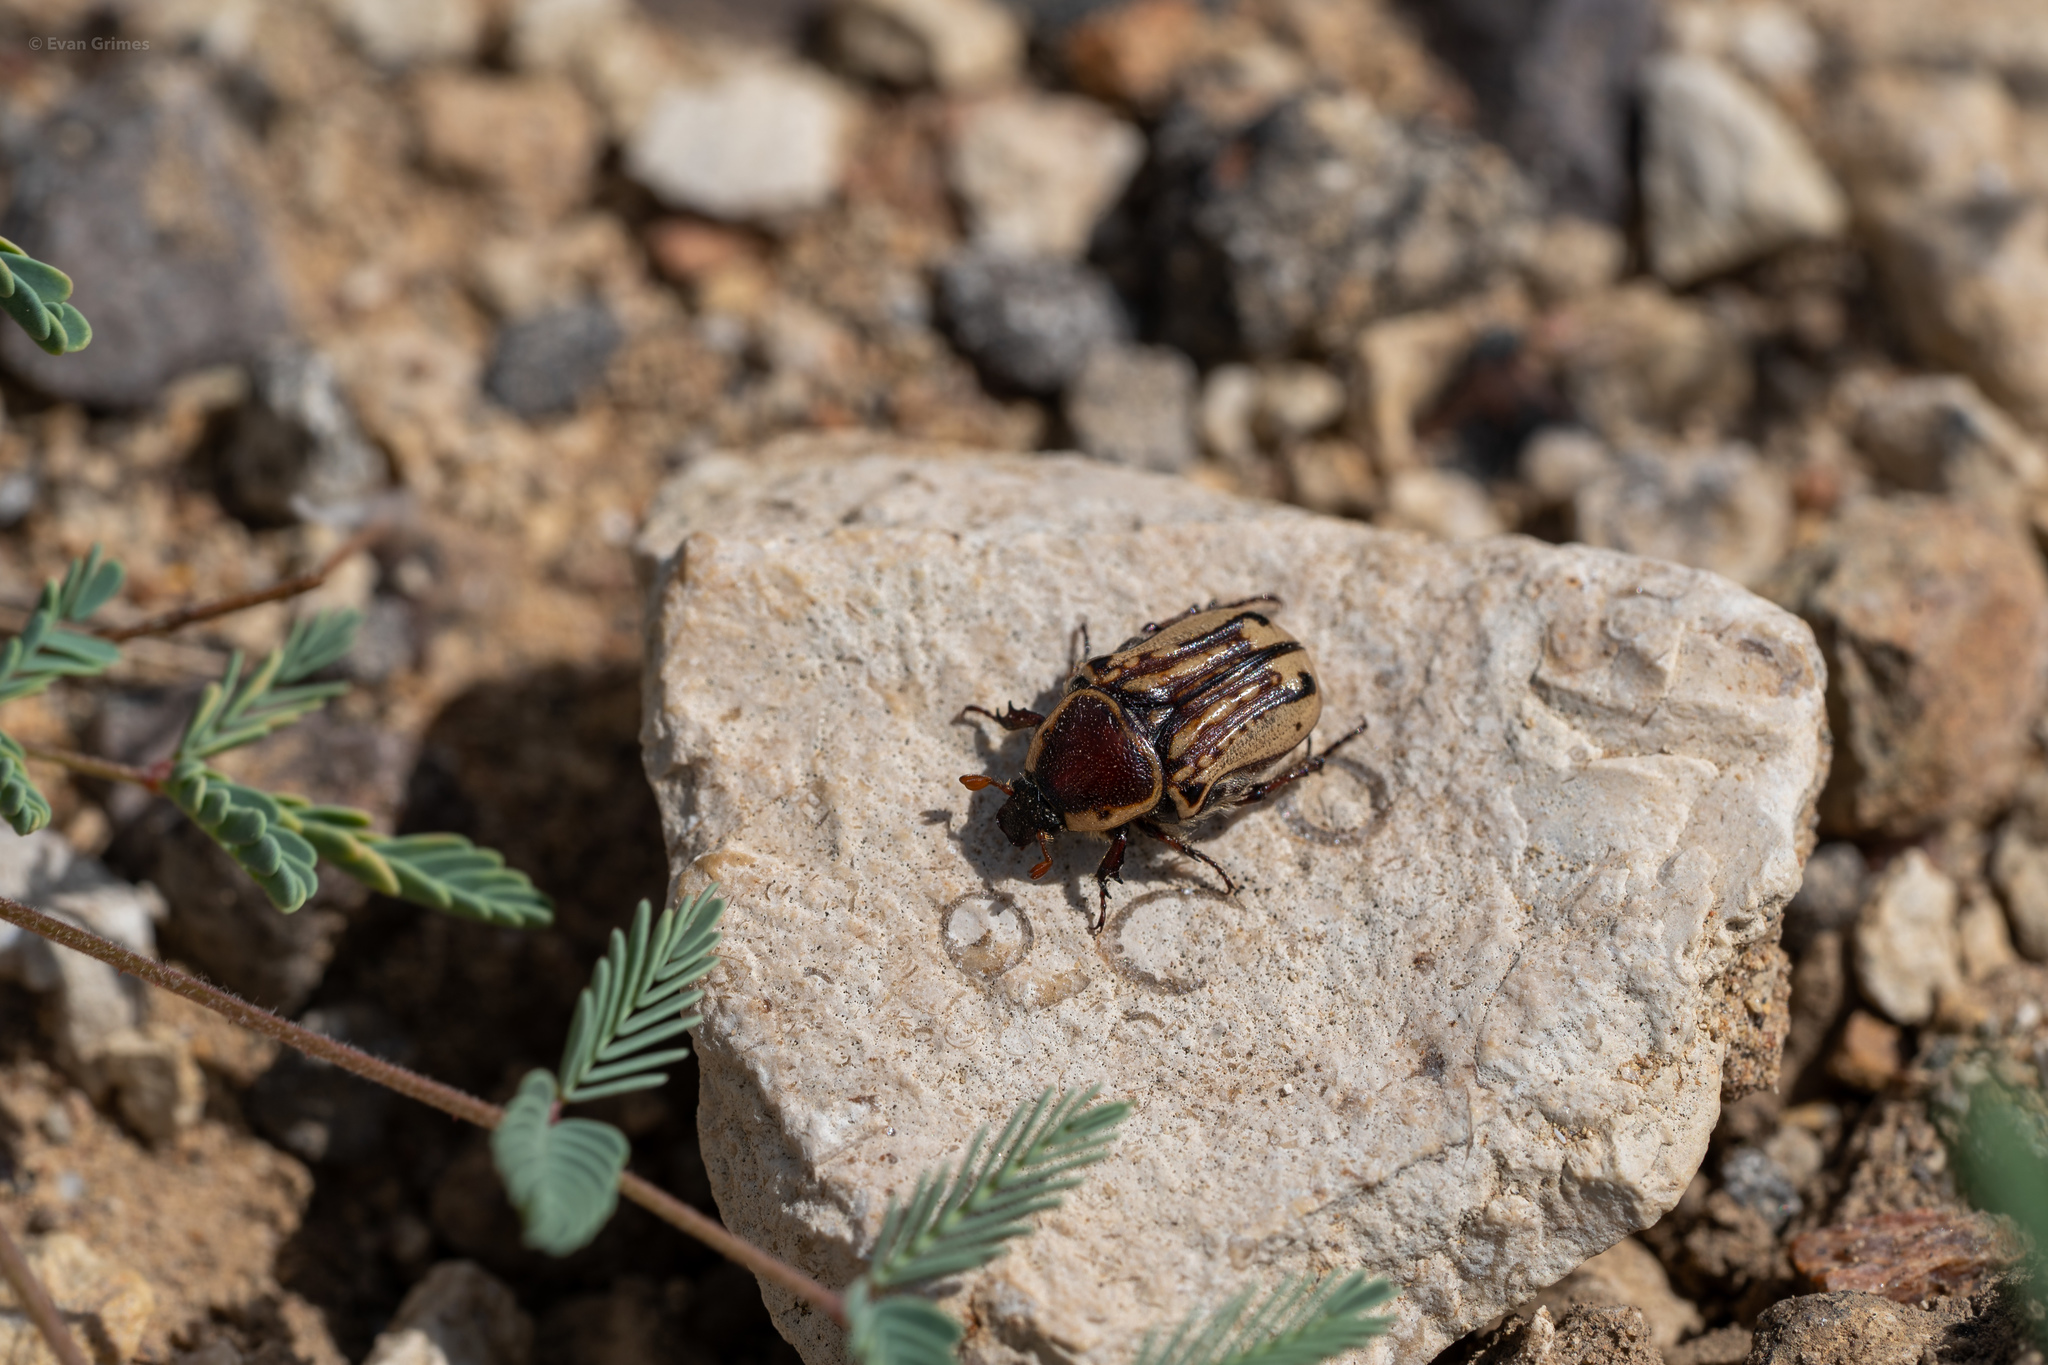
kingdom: Animalia
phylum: Arthropoda
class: Insecta
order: Coleoptera
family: Scarabaeidae
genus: Euphoria
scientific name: Euphoria kernii
